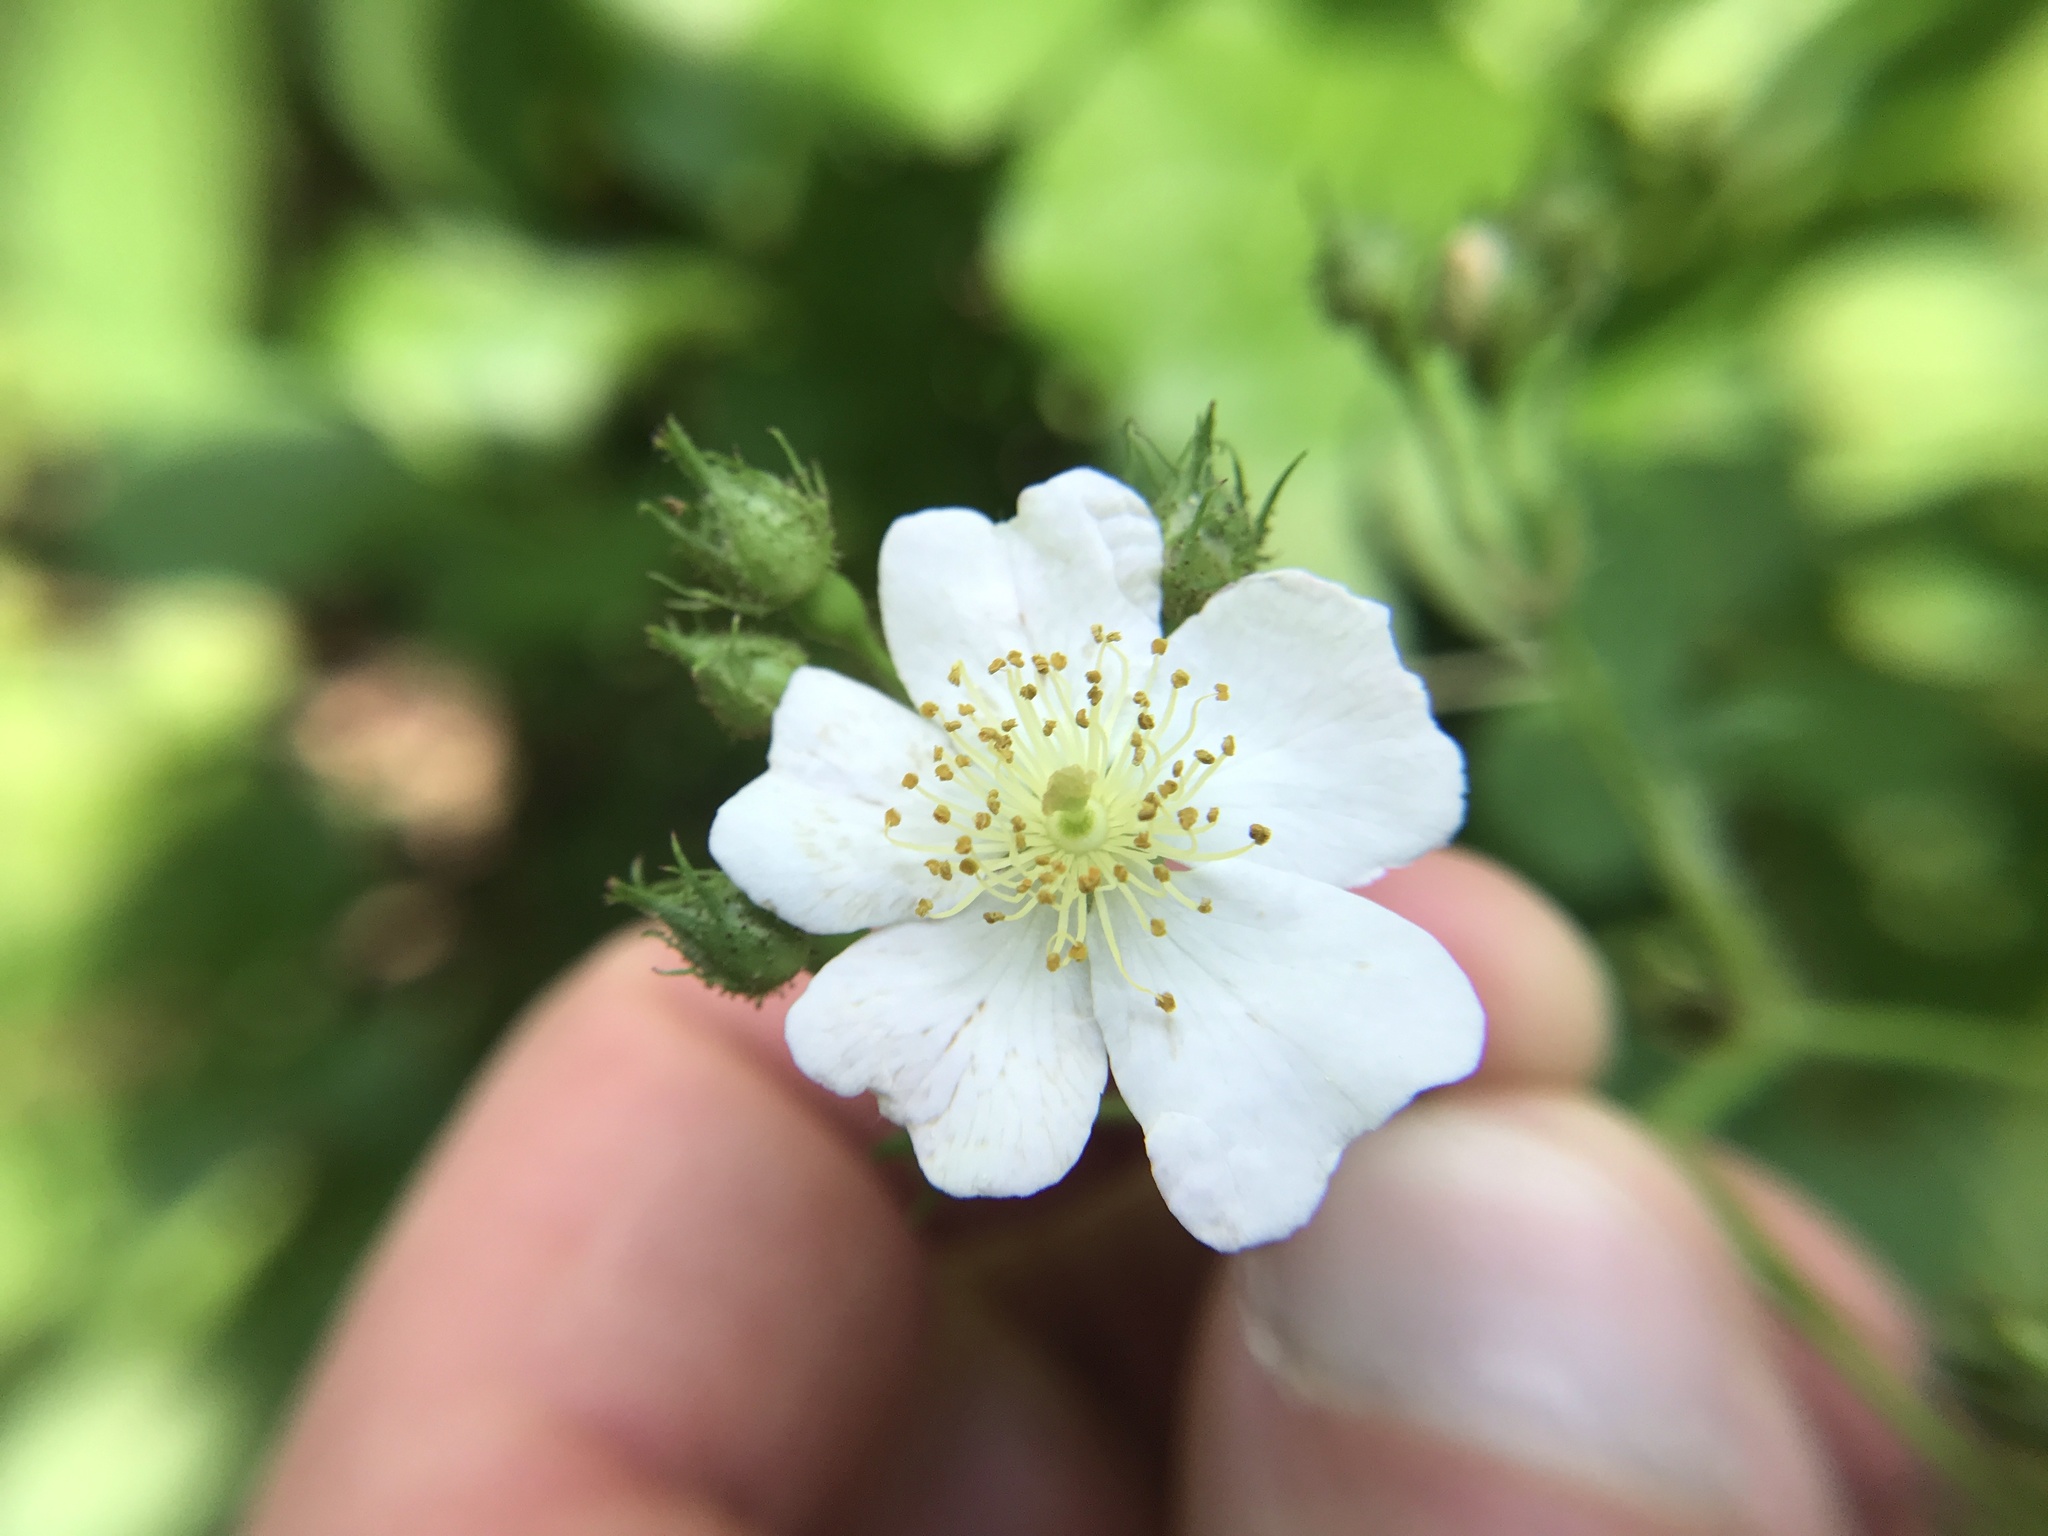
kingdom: Plantae
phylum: Tracheophyta
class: Magnoliopsida
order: Rosales
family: Rosaceae
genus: Rosa
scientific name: Rosa multiflora
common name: Multiflora rose
